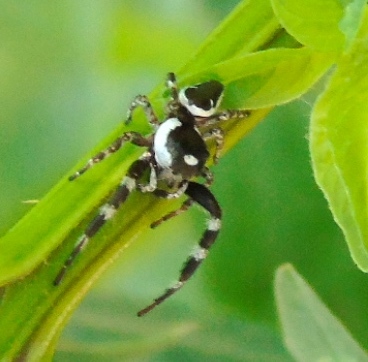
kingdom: Animalia
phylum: Arthropoda
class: Arachnida
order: Araneae
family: Salticidae
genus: Dendryphantes
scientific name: Dendryphantes zygoballoides
